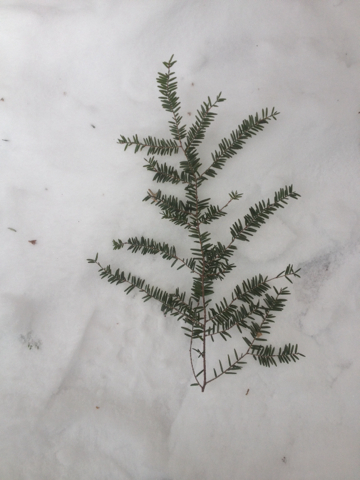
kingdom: Plantae
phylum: Tracheophyta
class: Pinopsida
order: Pinales
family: Pinaceae
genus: Tsuga
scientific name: Tsuga canadensis
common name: Eastern hemlock
